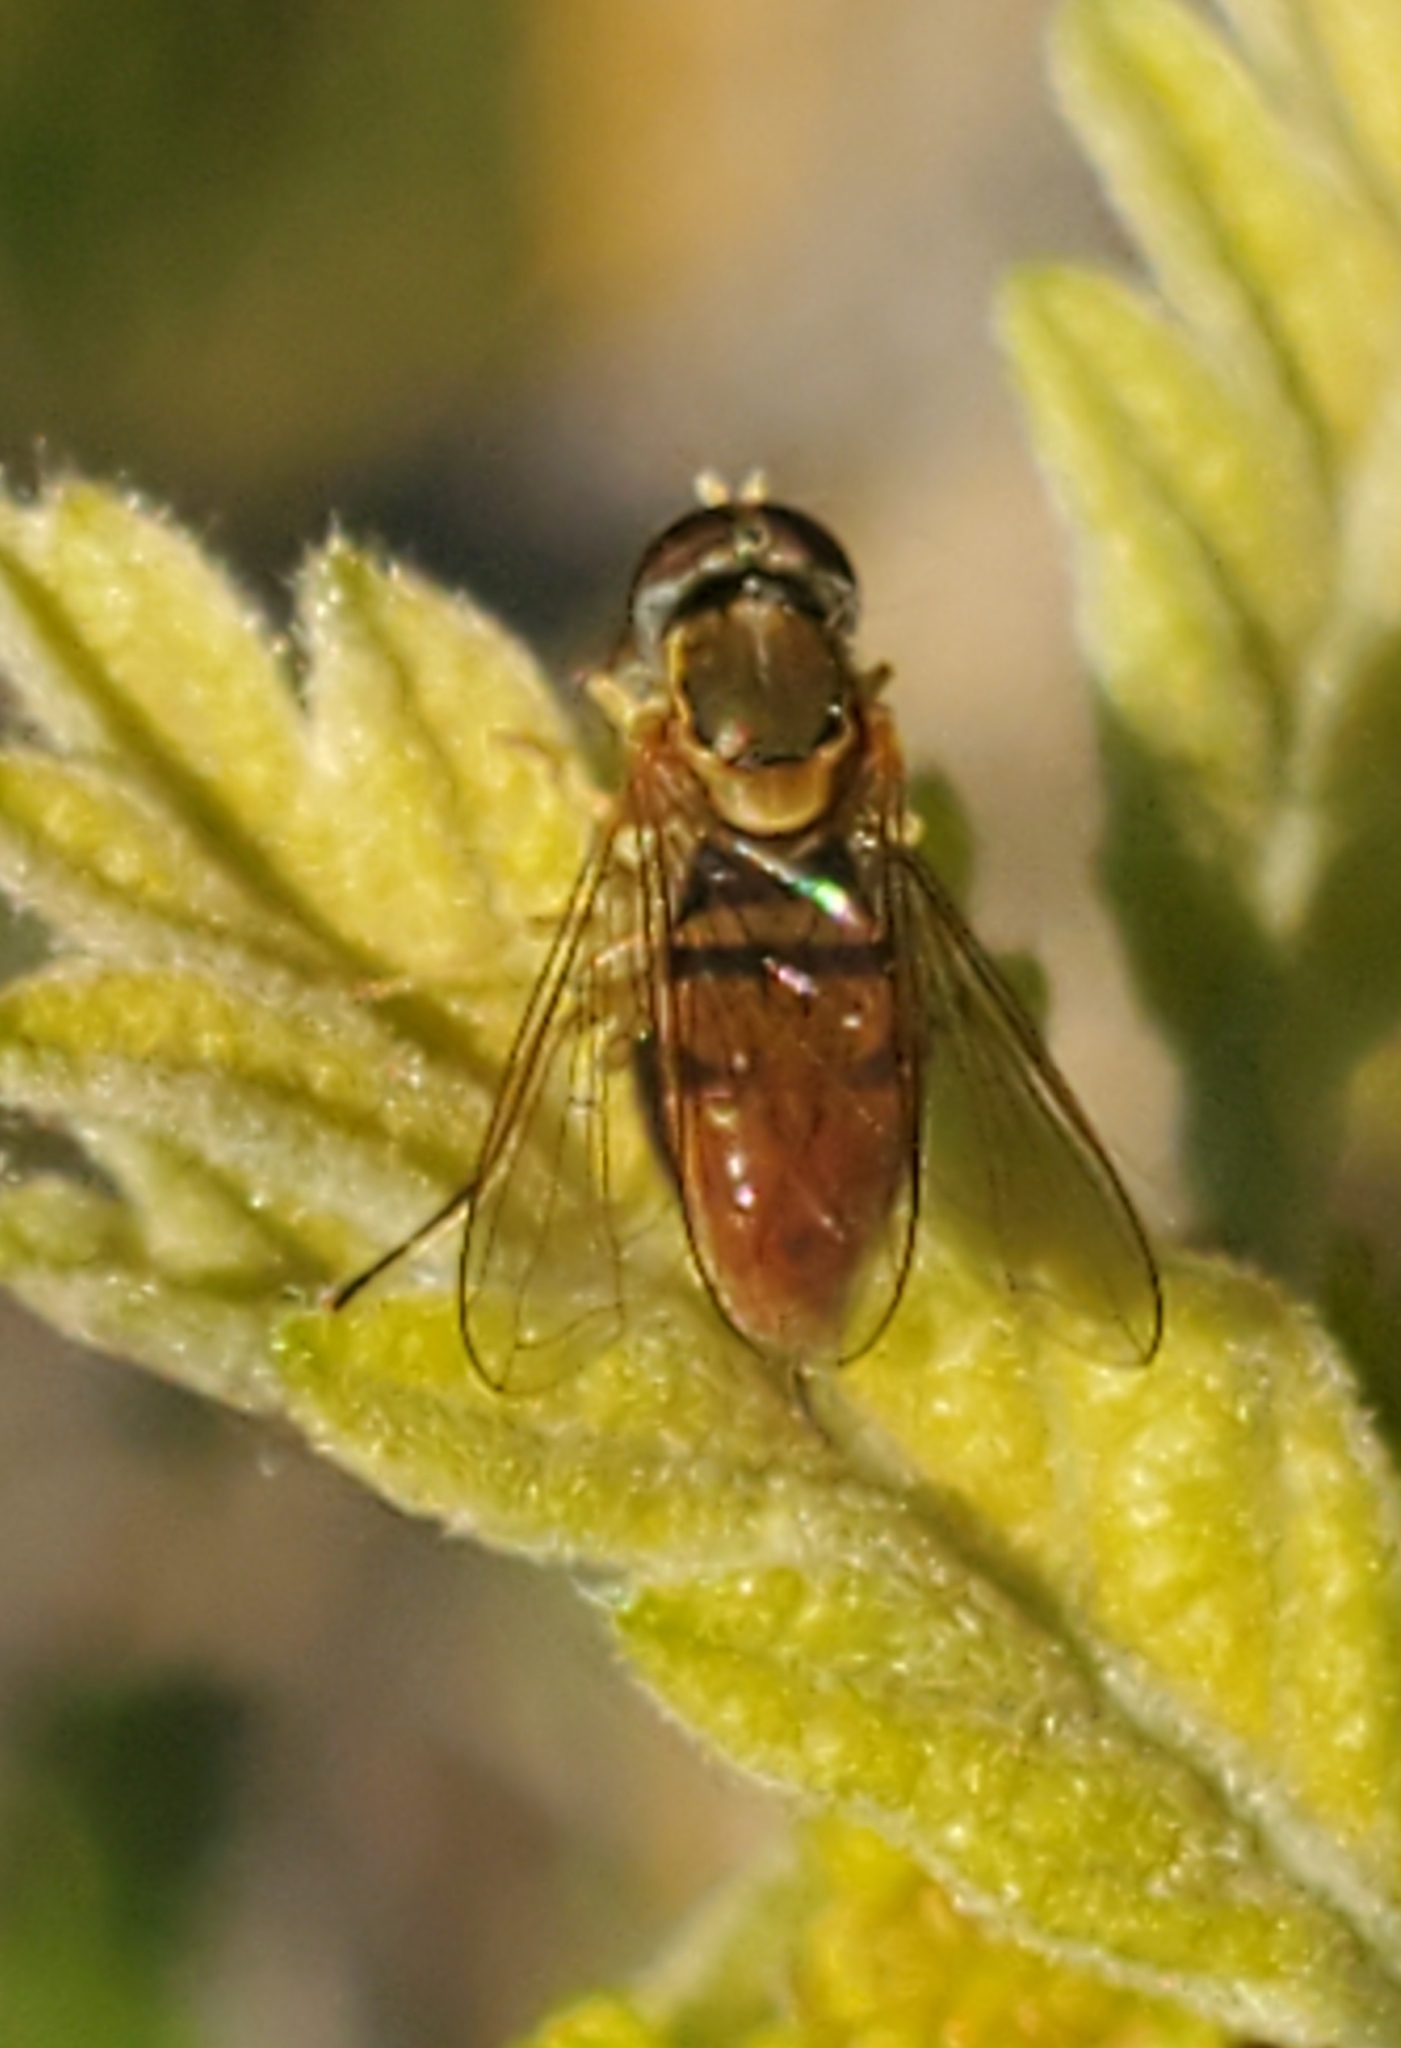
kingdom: Animalia
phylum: Arthropoda
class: Insecta
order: Diptera
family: Syrphidae
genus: Toxomerus
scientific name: Toxomerus marginatus
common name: Syrphid fly
